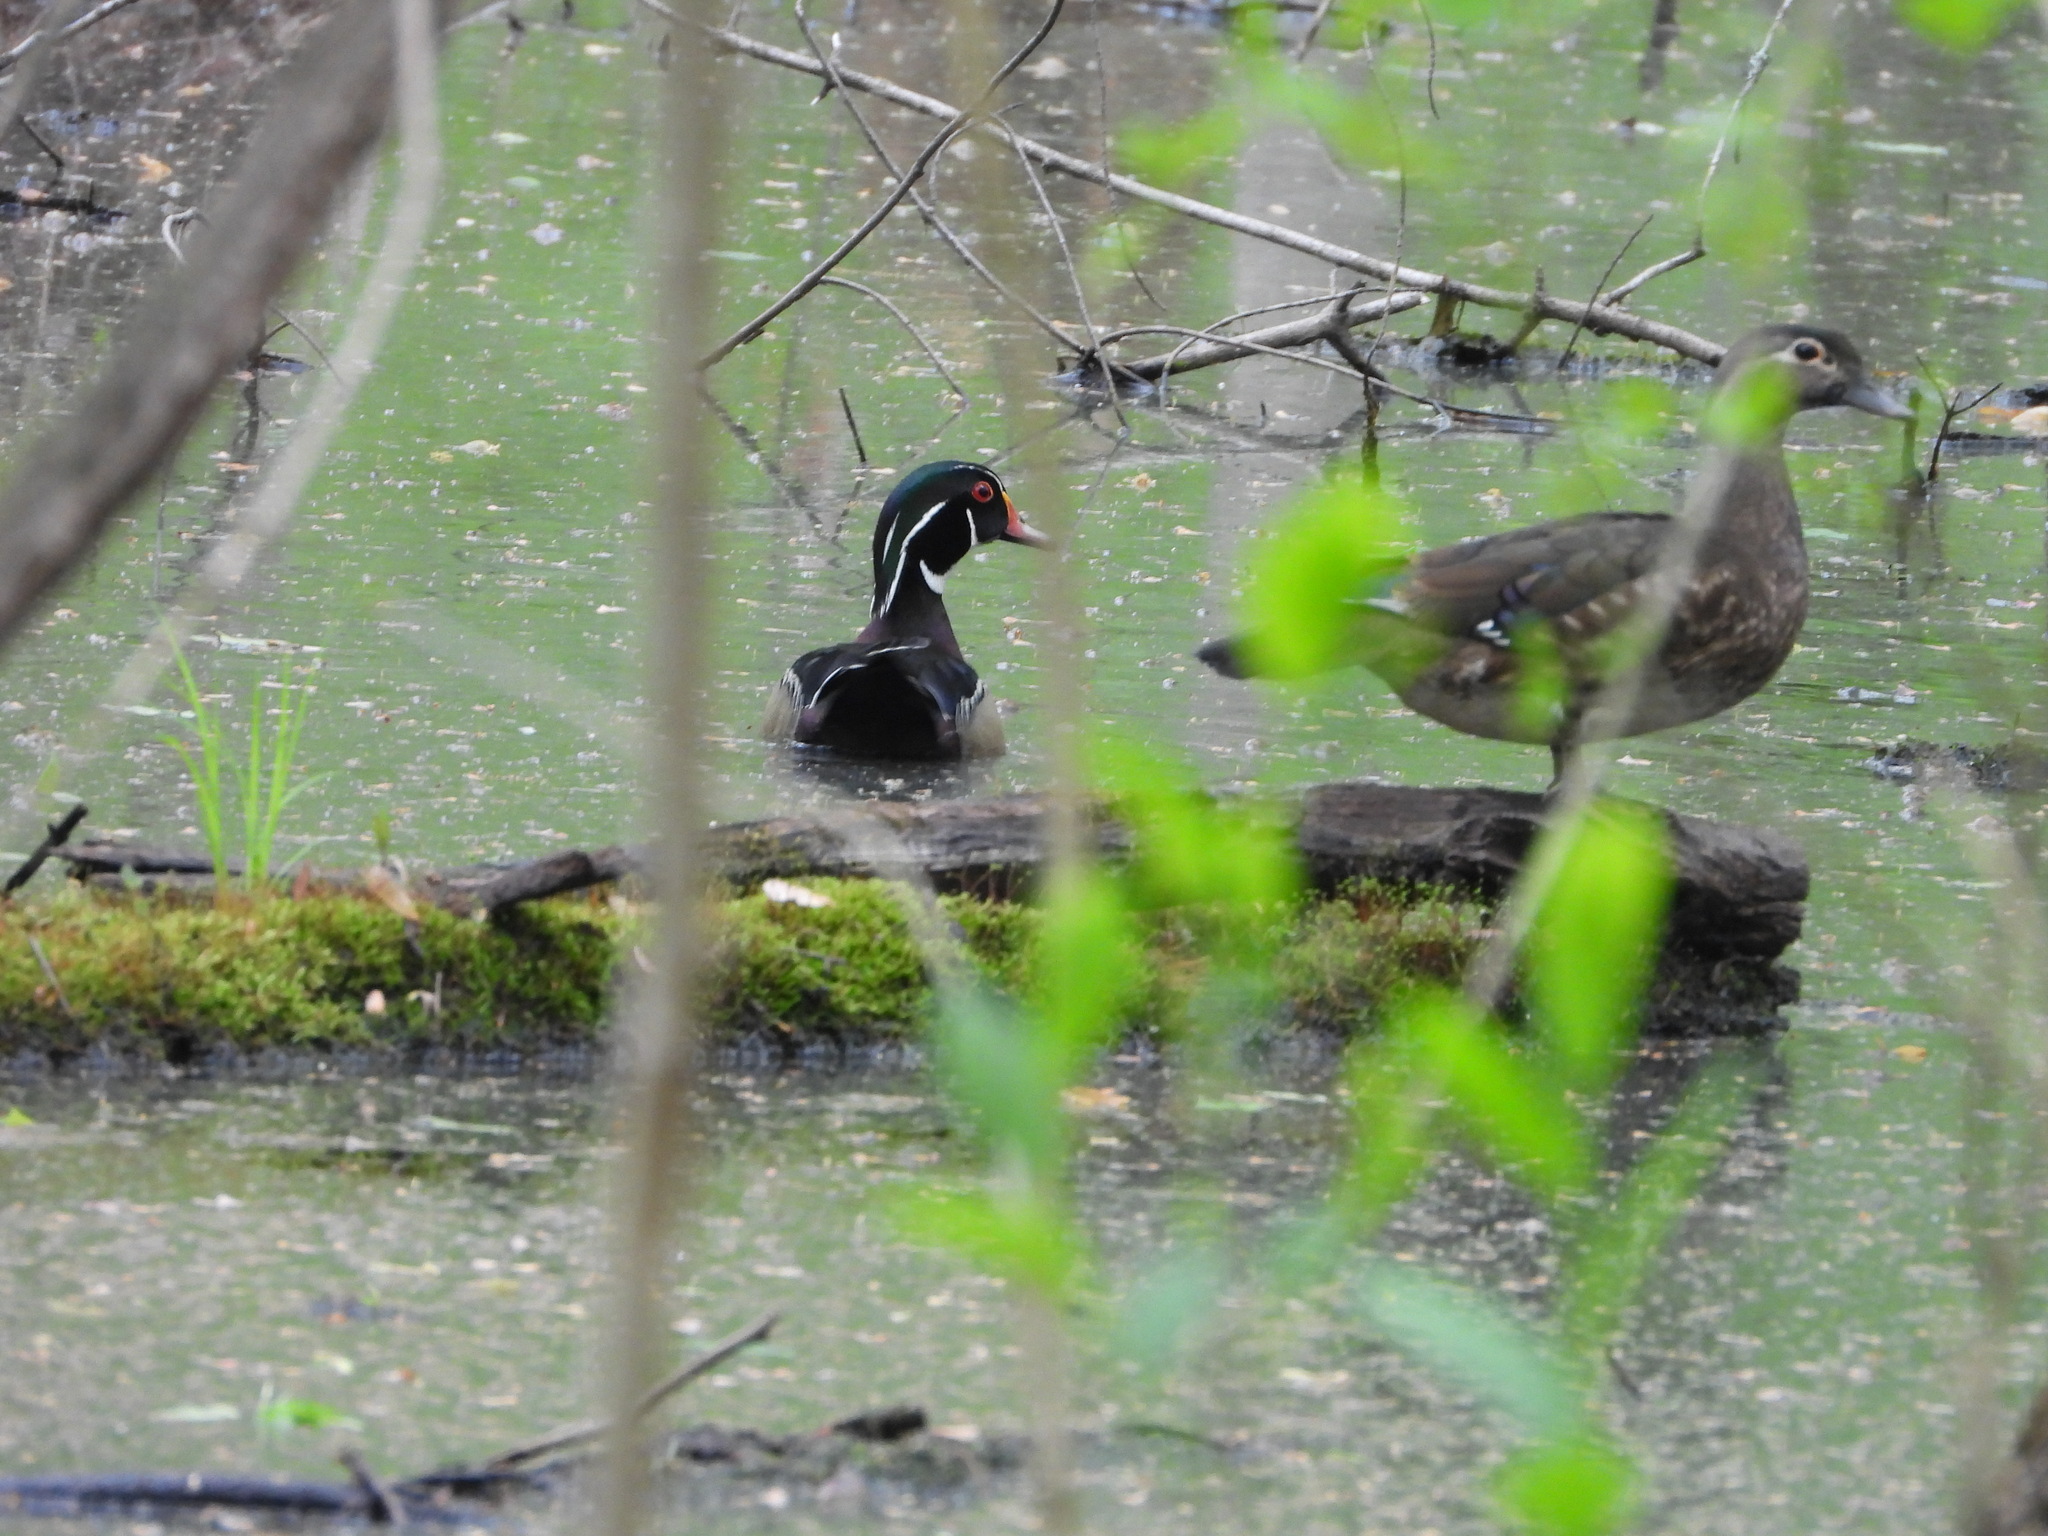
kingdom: Animalia
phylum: Chordata
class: Aves
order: Anseriformes
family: Anatidae
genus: Aix
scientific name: Aix sponsa
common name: Wood duck
